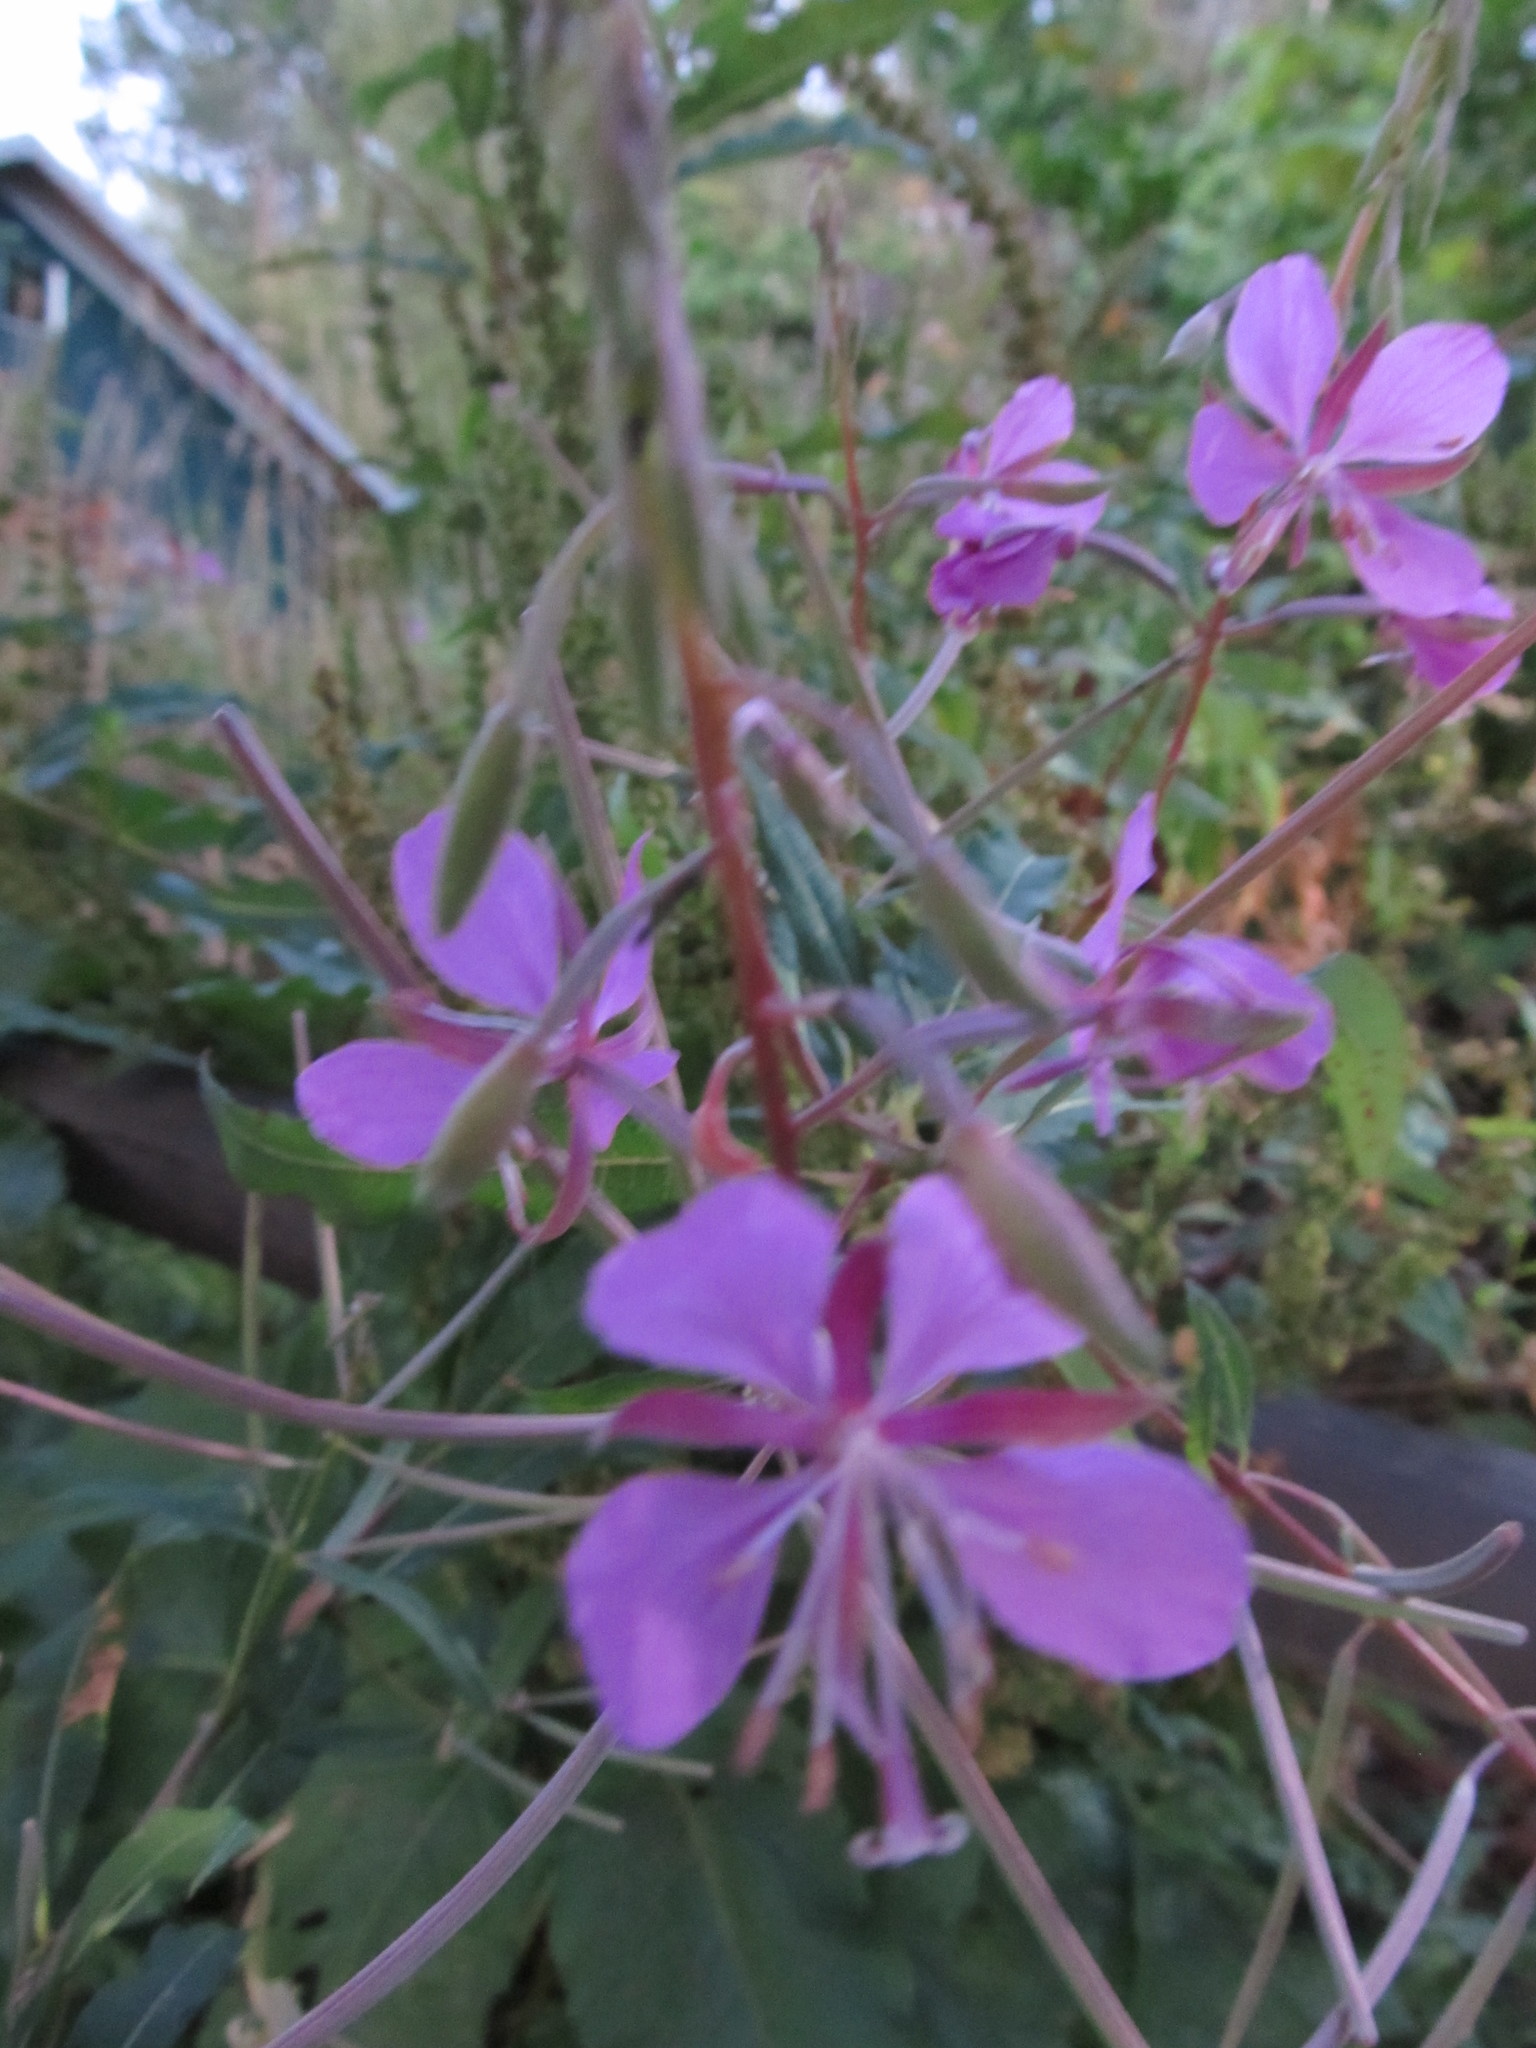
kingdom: Plantae
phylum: Tracheophyta
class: Magnoliopsida
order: Myrtales
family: Onagraceae
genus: Chamaenerion
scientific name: Chamaenerion angustifolium
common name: Fireweed
